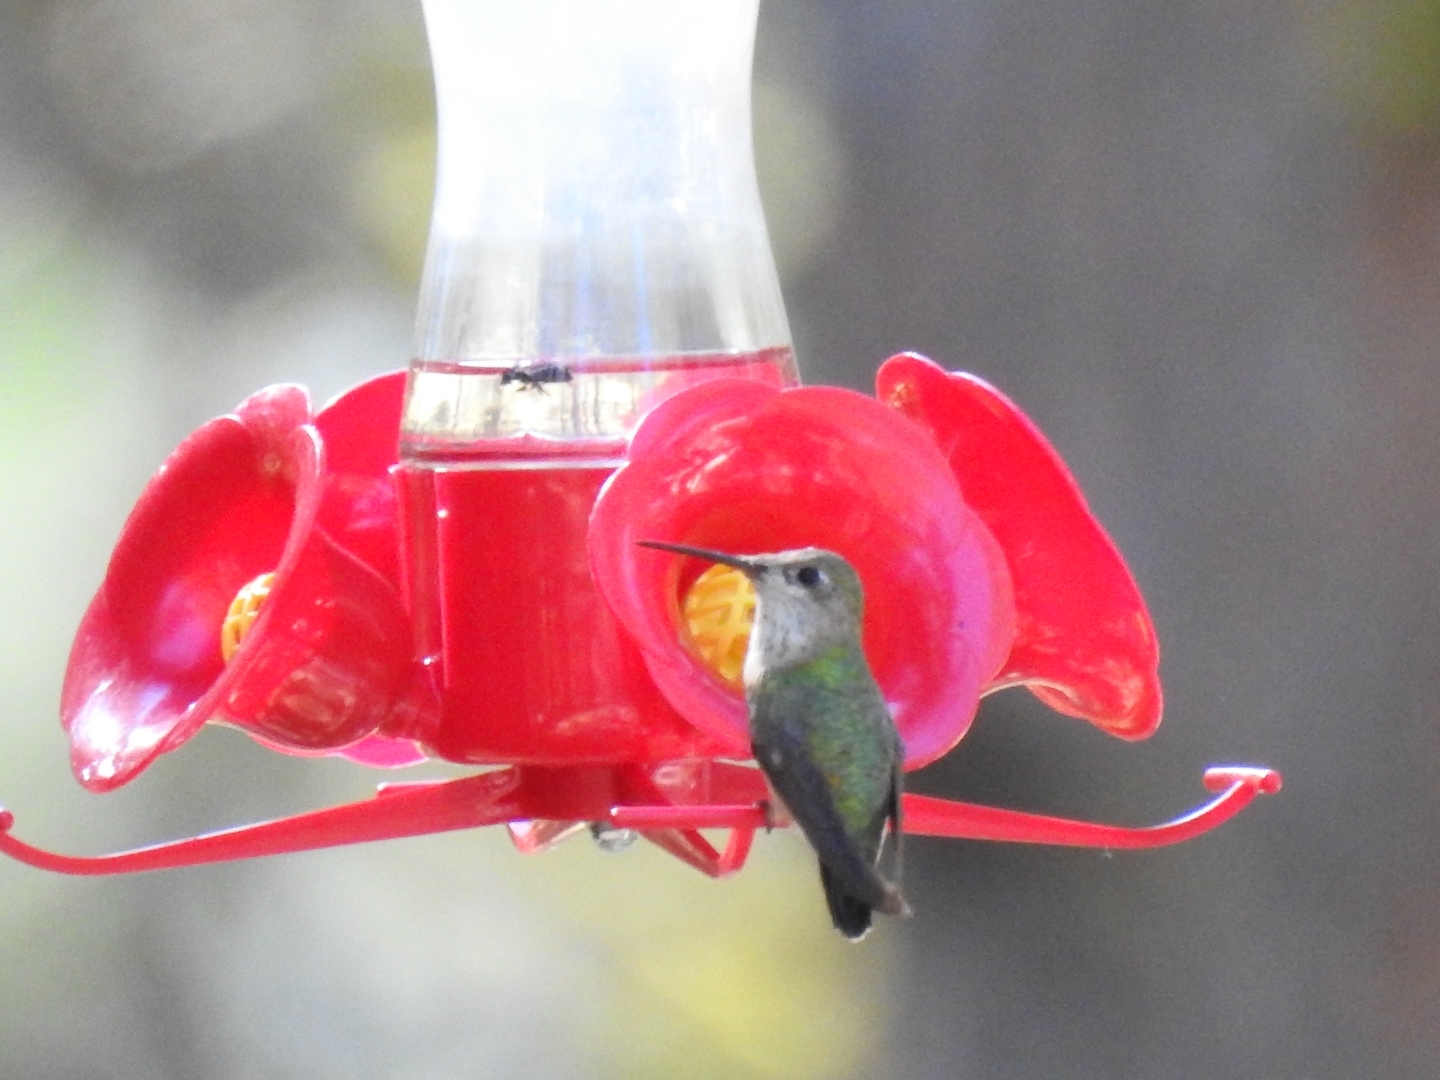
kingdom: Animalia
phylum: Chordata
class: Aves
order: Apodiformes
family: Trochilidae
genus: Archilochus
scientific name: Archilochus alexandri
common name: Black-chinned hummingbird
